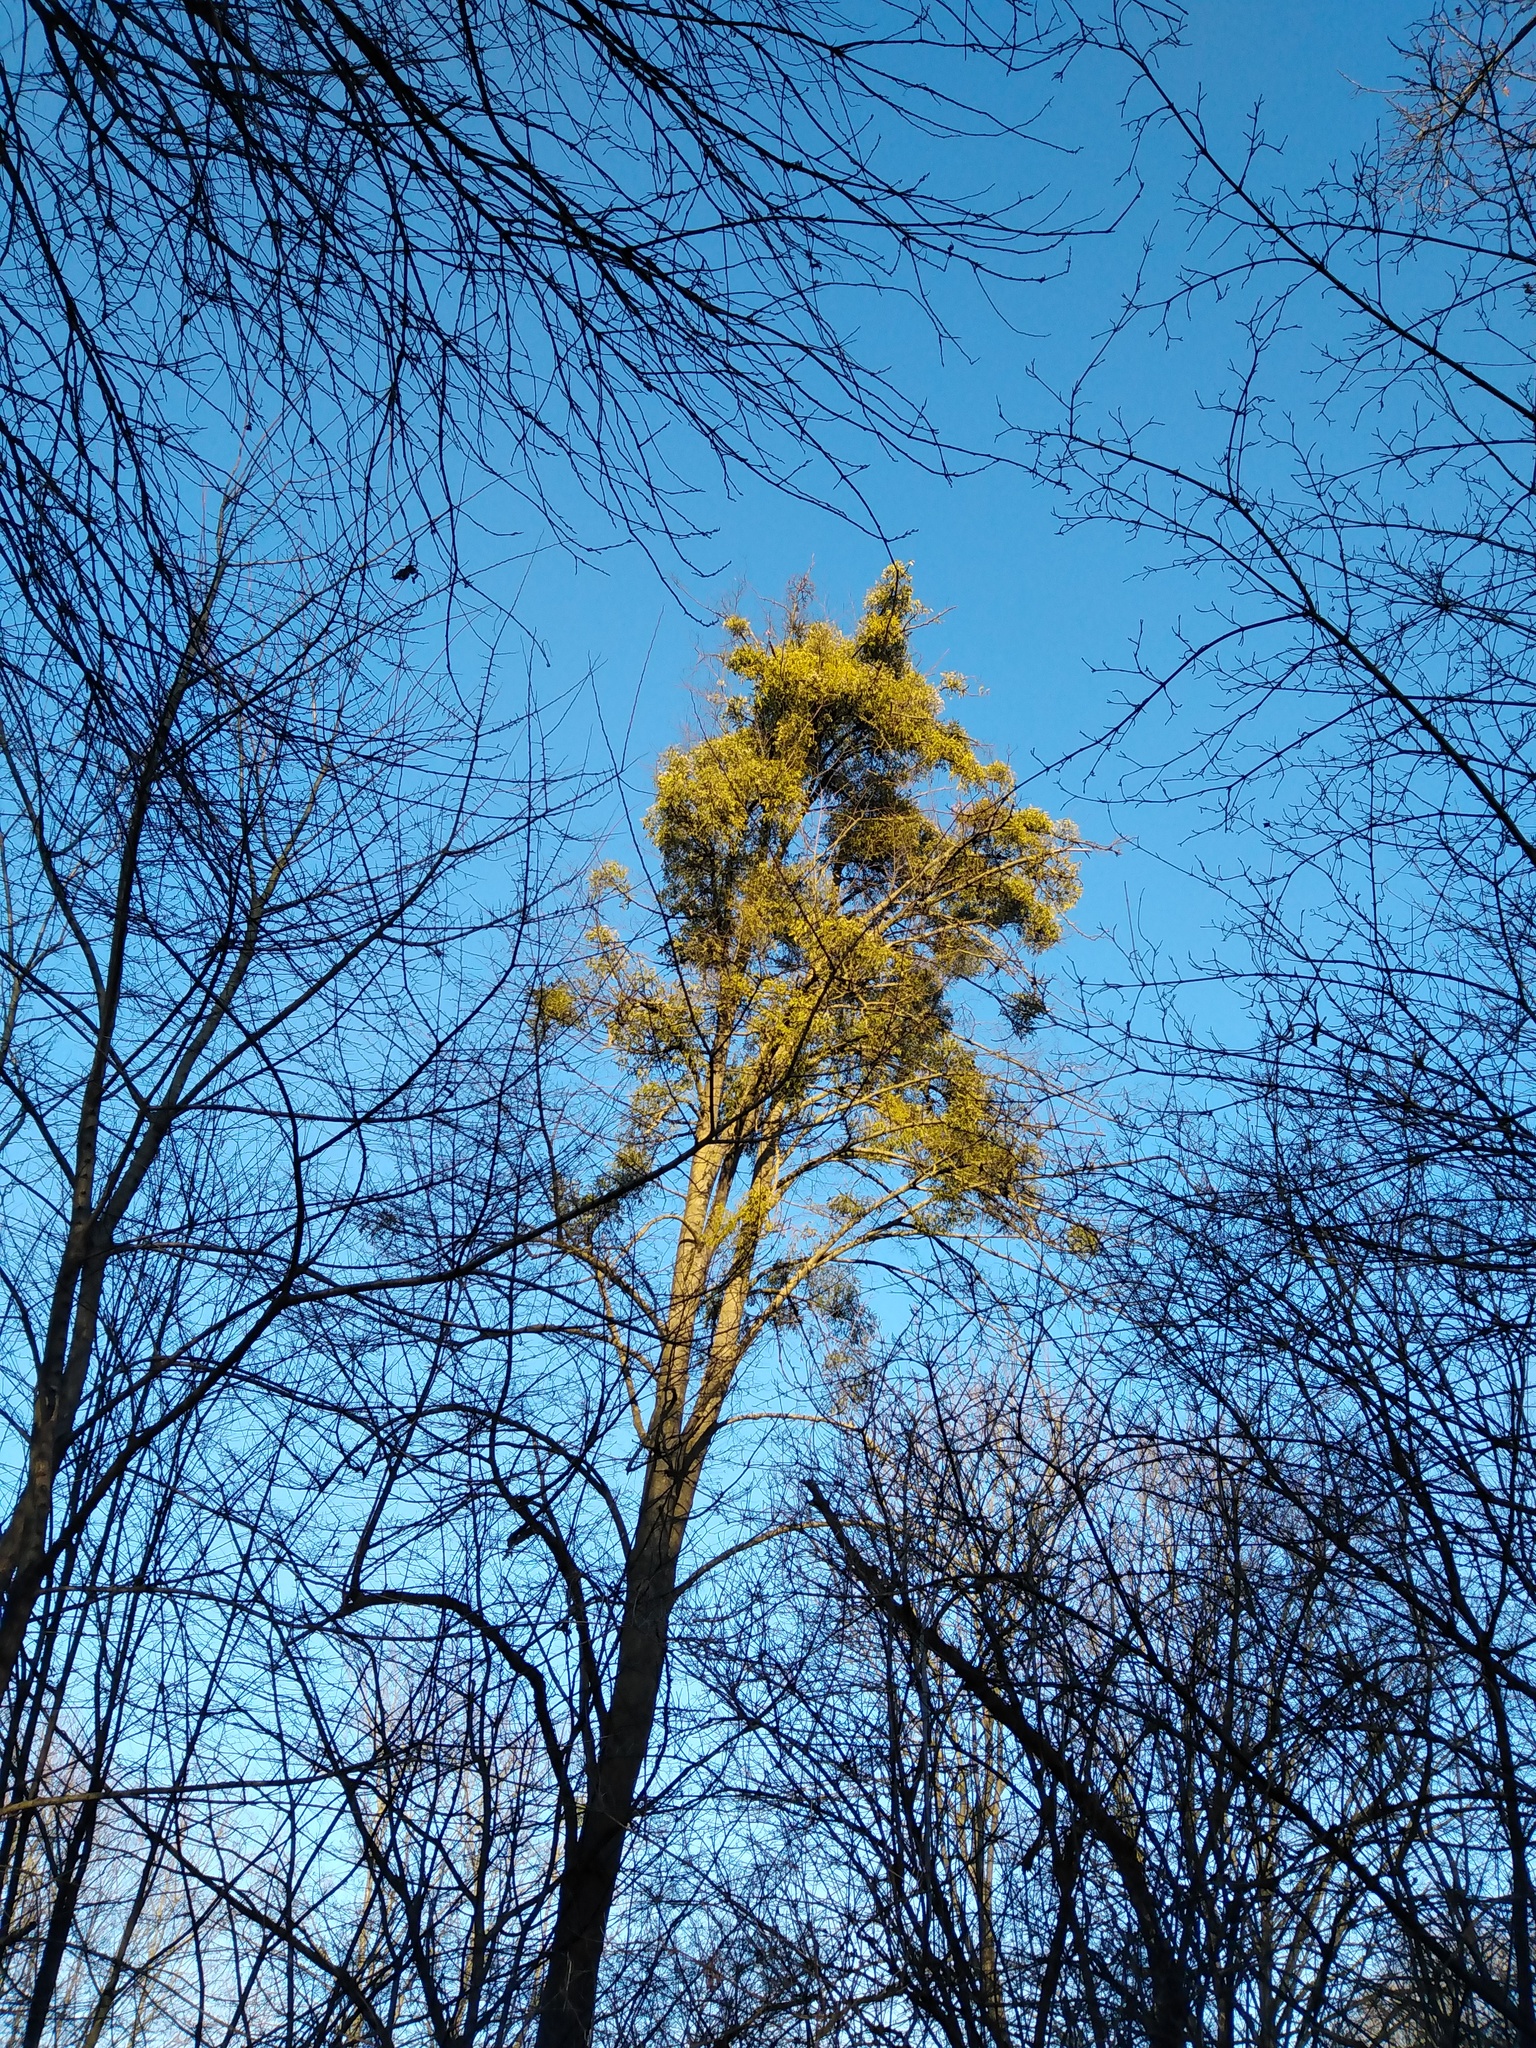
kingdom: Plantae
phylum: Tracheophyta
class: Magnoliopsida
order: Santalales
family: Viscaceae
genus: Viscum
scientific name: Viscum album
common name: Mistletoe
